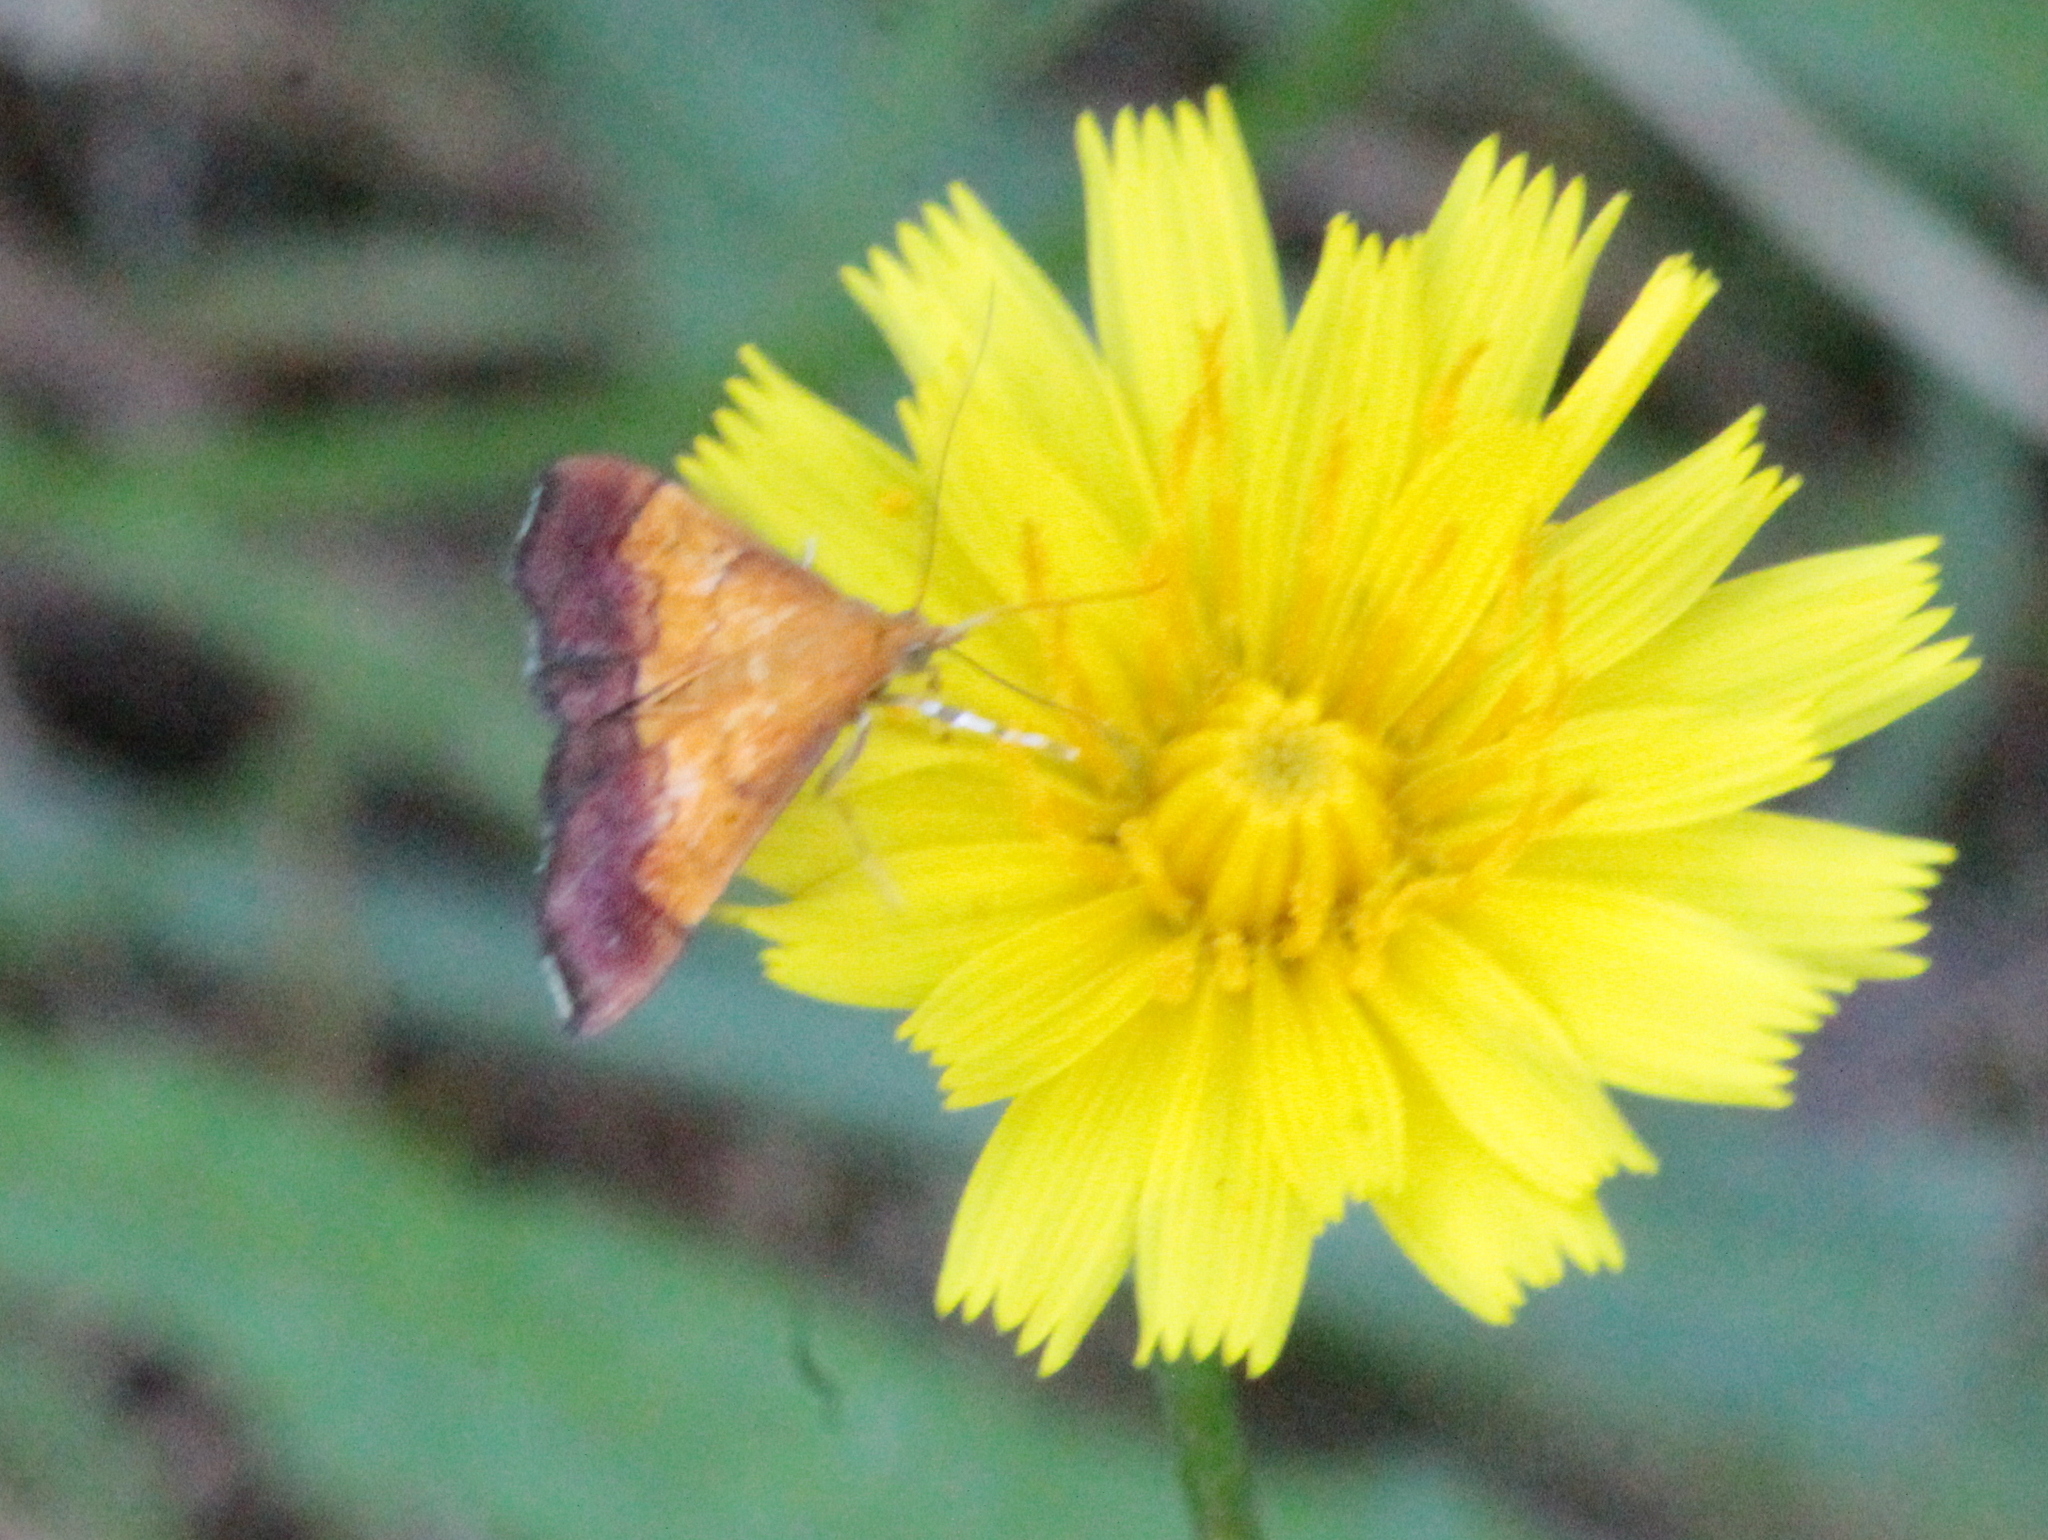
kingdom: Animalia
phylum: Arthropoda
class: Insecta
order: Lepidoptera
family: Crambidae
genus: Pyrausta
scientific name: Pyrausta bicoloralis
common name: Bicolored pyrausta moth
